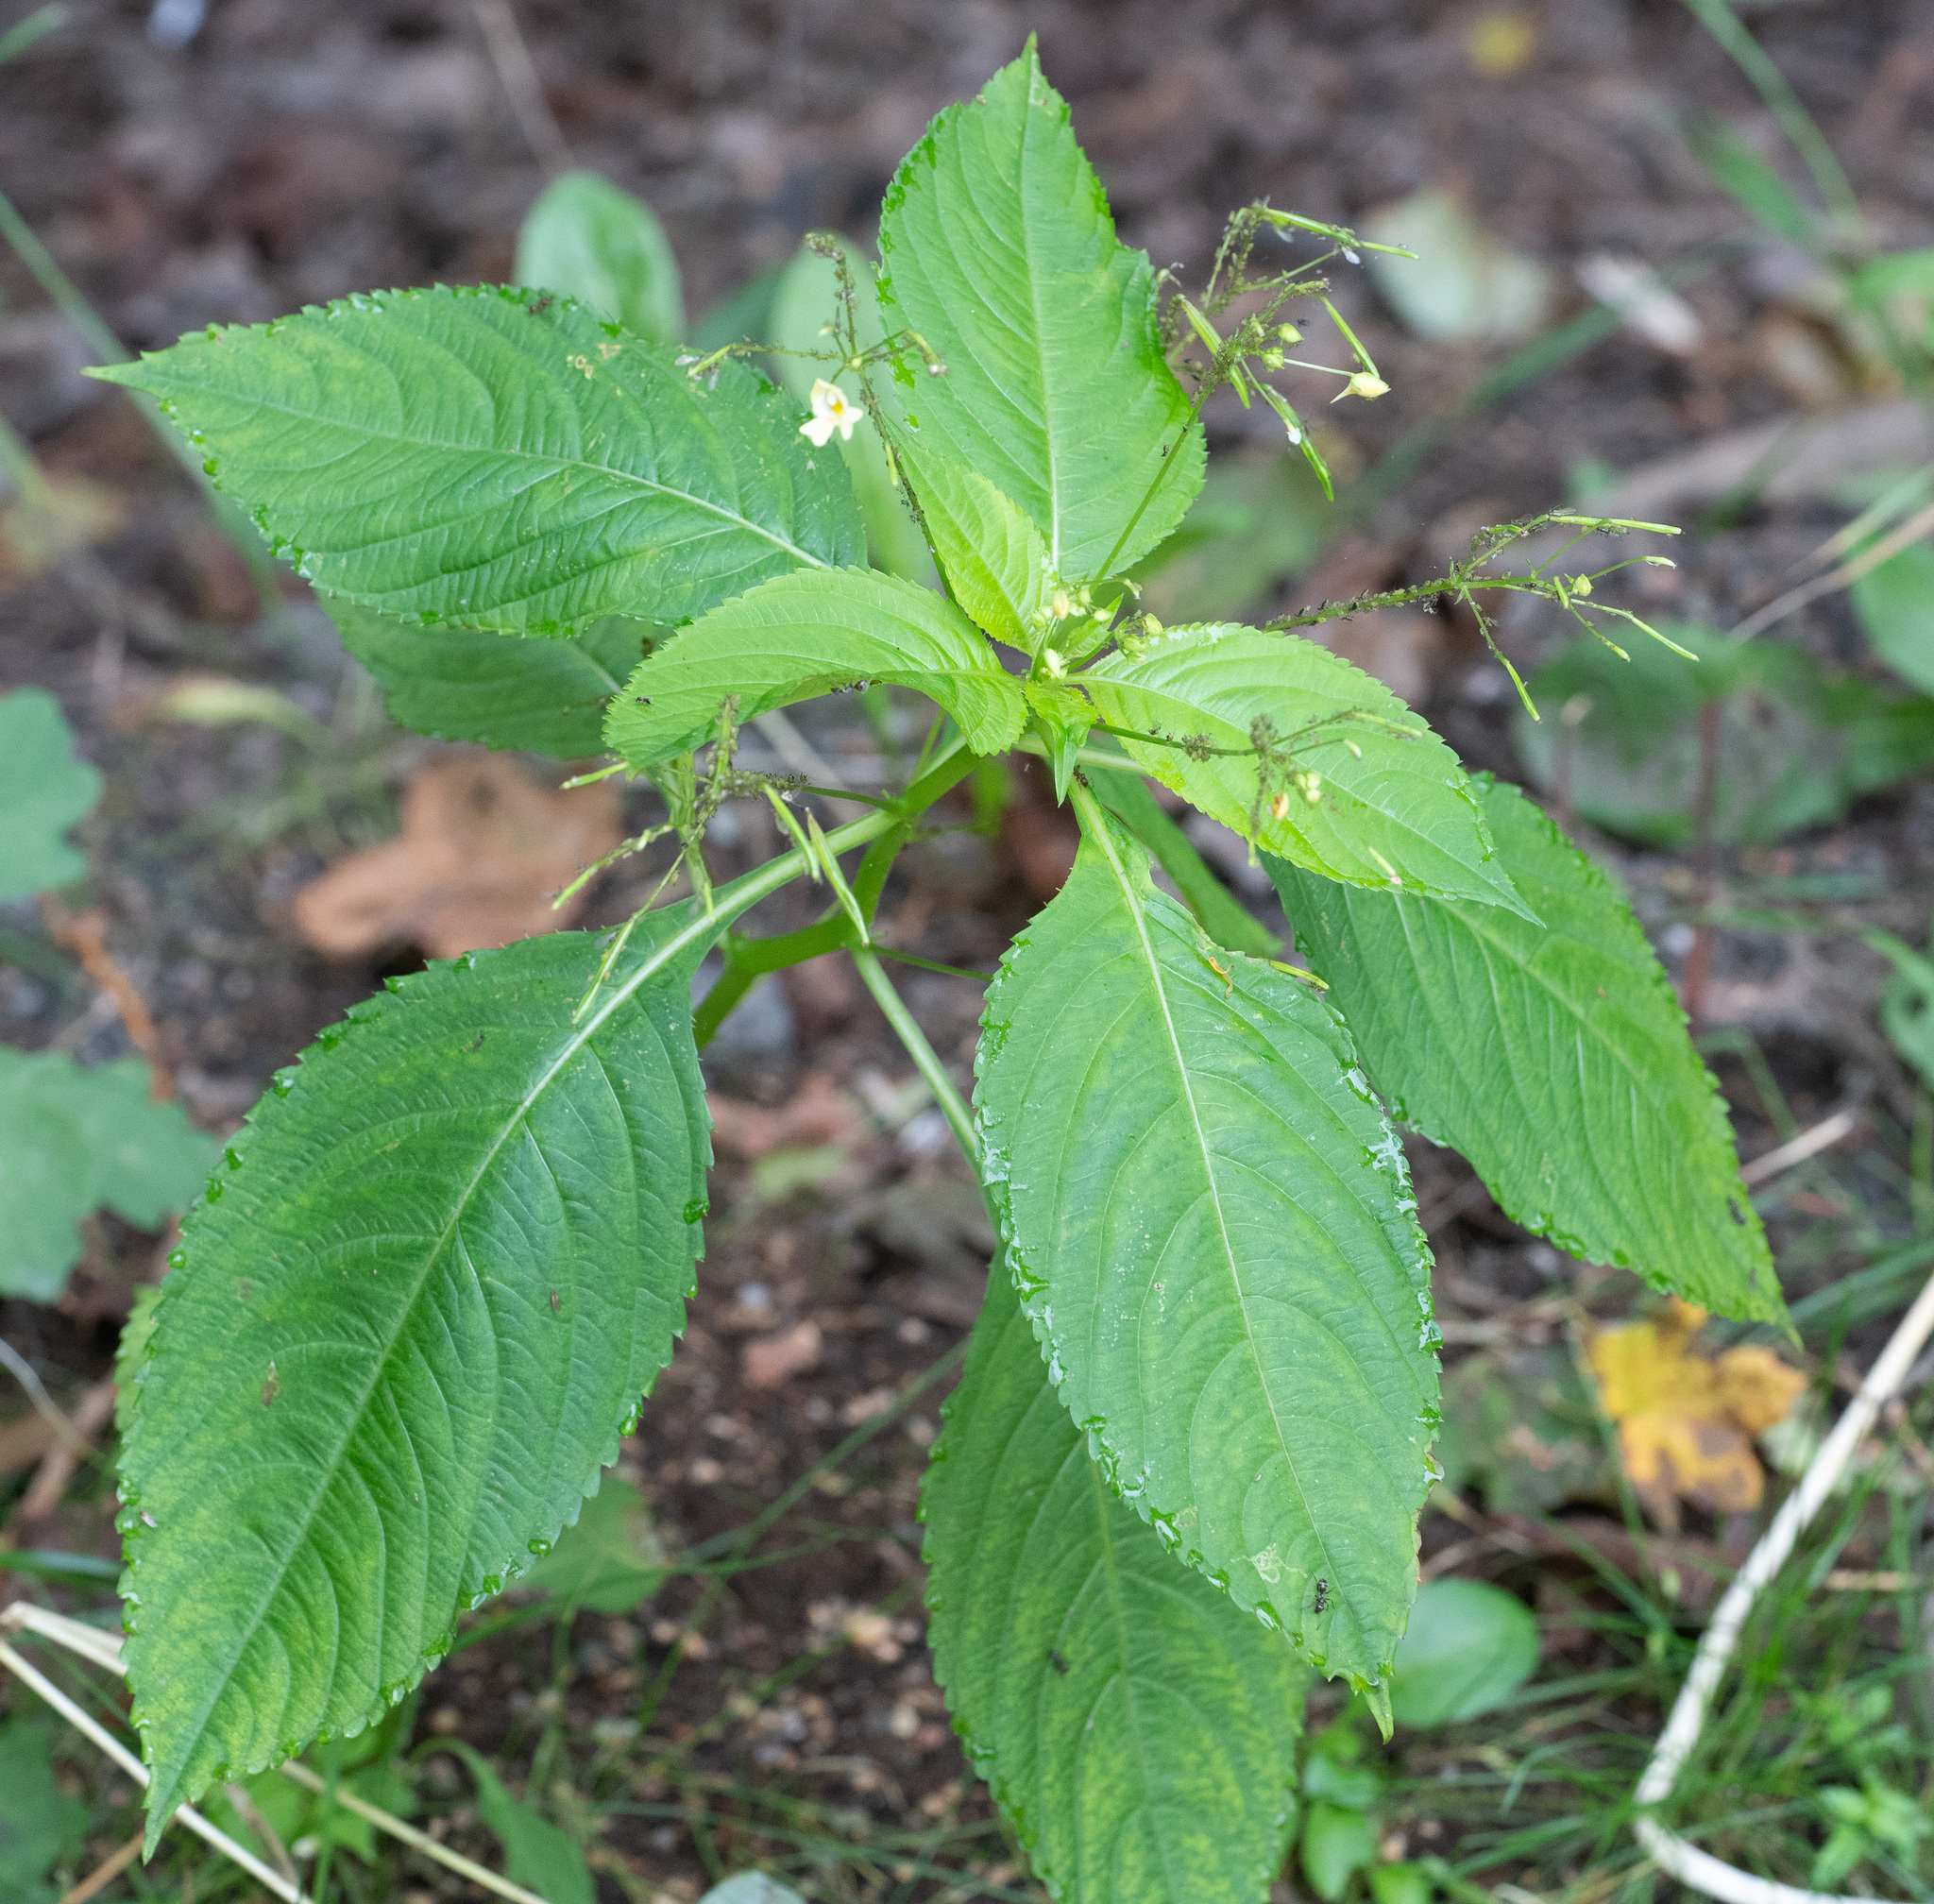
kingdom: Plantae
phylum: Tracheophyta
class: Magnoliopsida
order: Ericales
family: Balsaminaceae
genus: Impatiens
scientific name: Impatiens parviflora
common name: Small balsam
